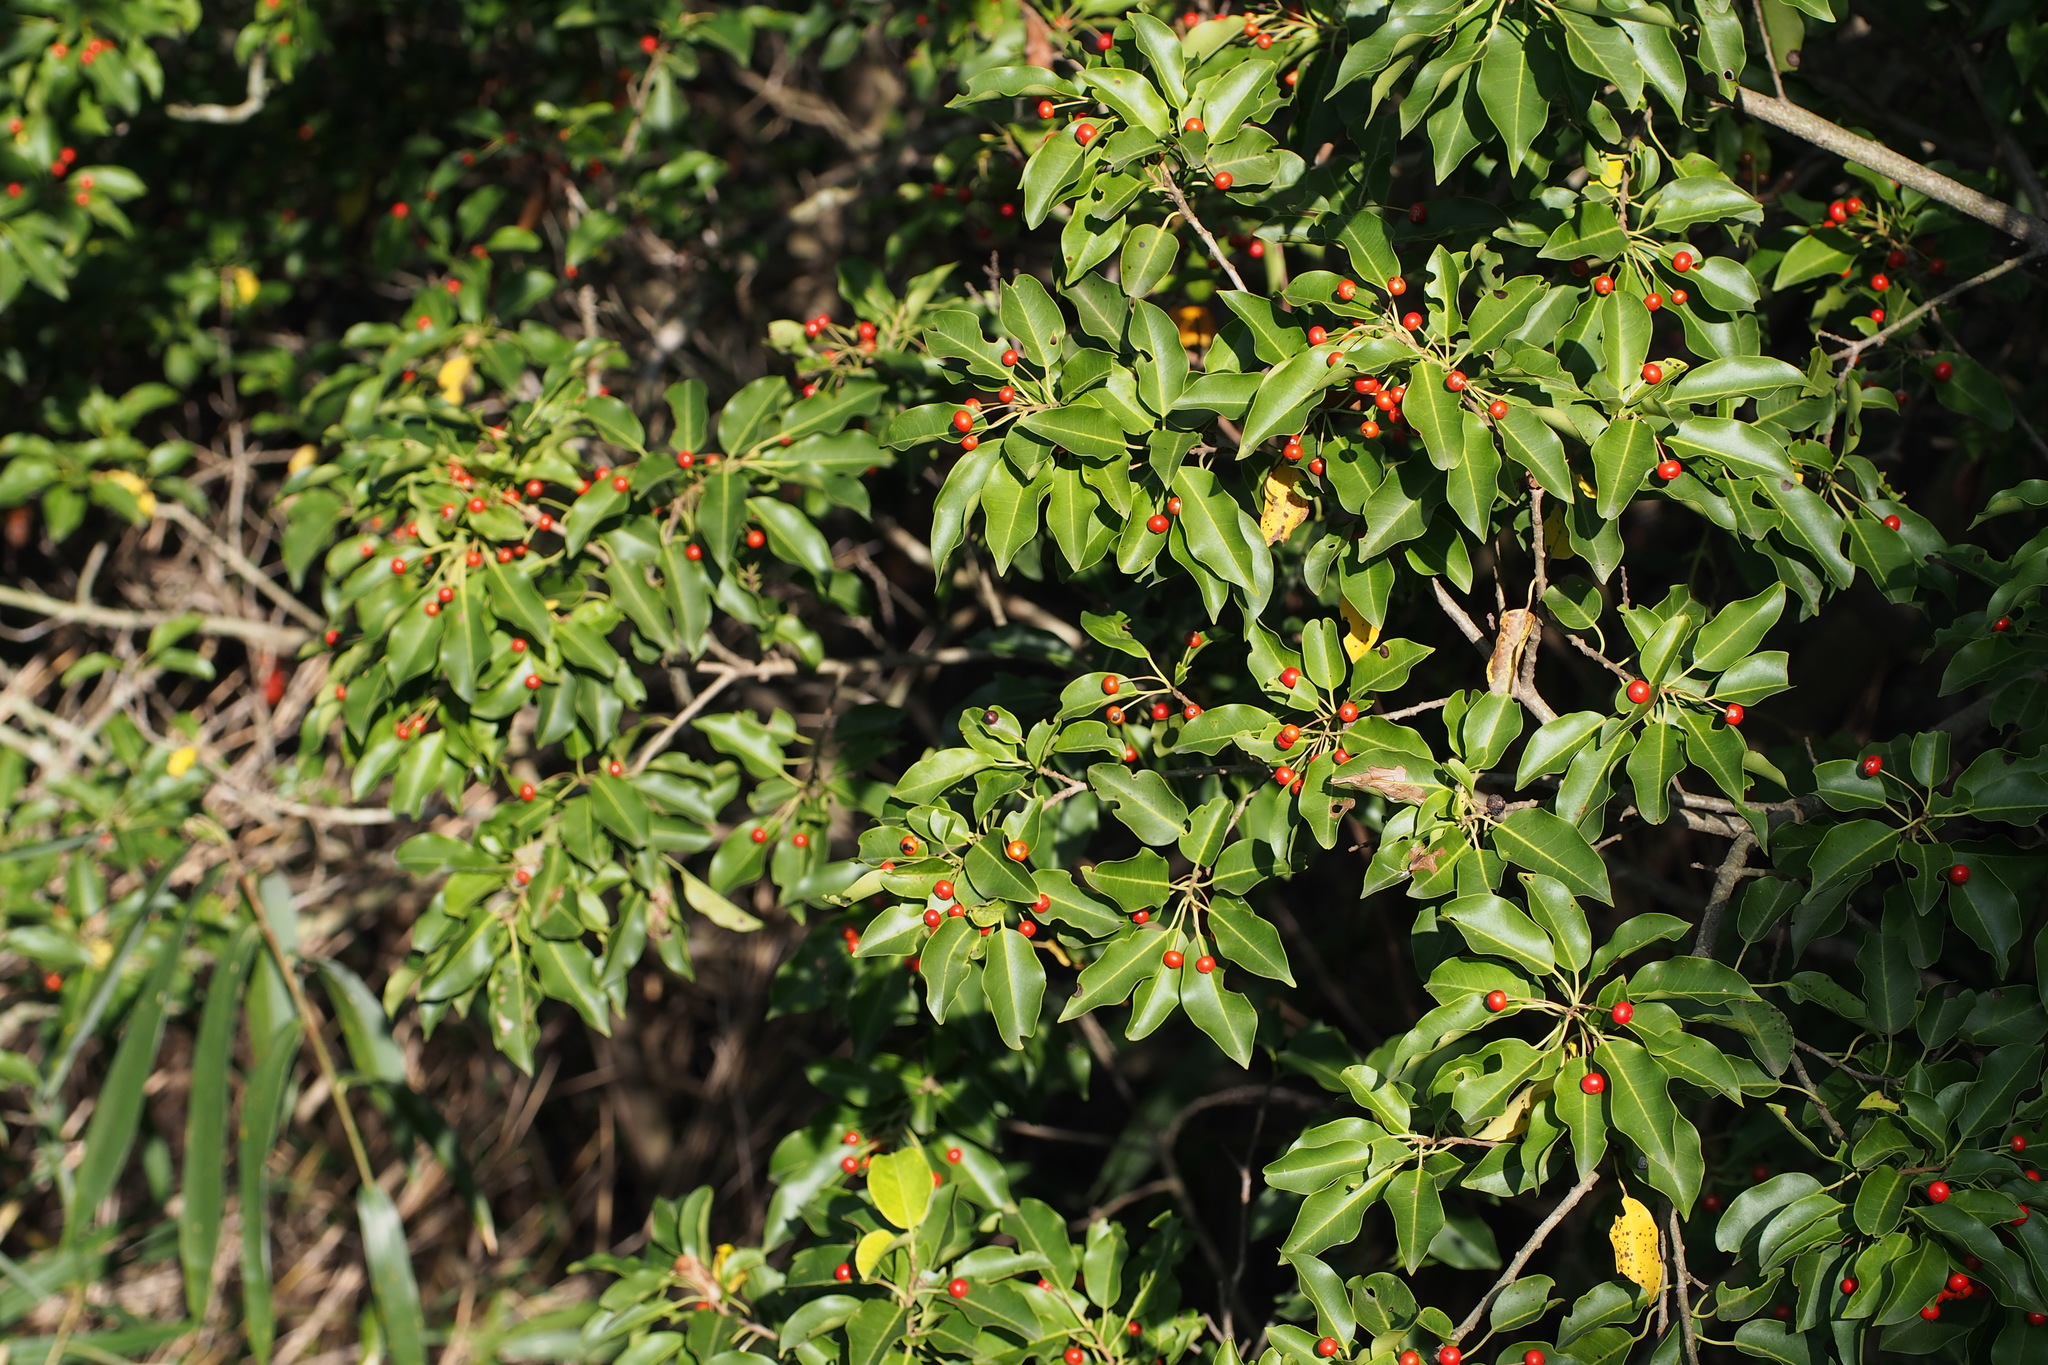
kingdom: Plantae
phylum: Tracheophyta
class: Magnoliopsida
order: Aquifoliales
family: Aquifoliaceae
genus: Ilex
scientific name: Ilex pedunculosa
